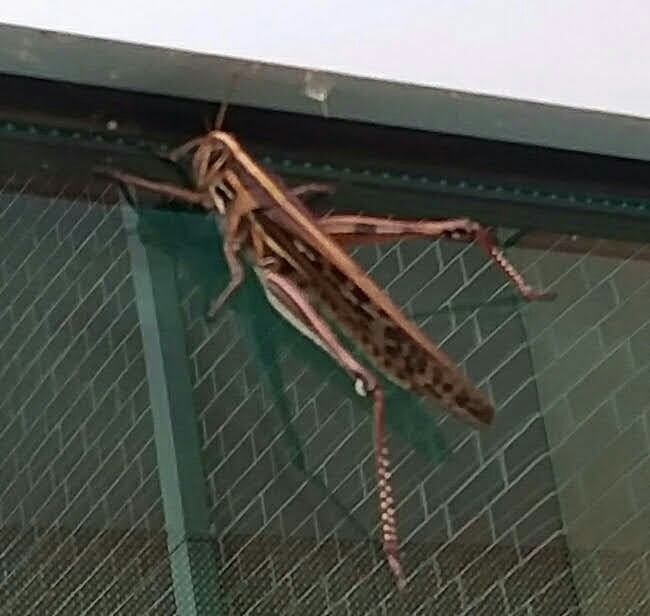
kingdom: Animalia
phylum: Arthropoda
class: Insecta
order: Orthoptera
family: Acrididae
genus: Schistocerca
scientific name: Schistocerca americana
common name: American bird locust
